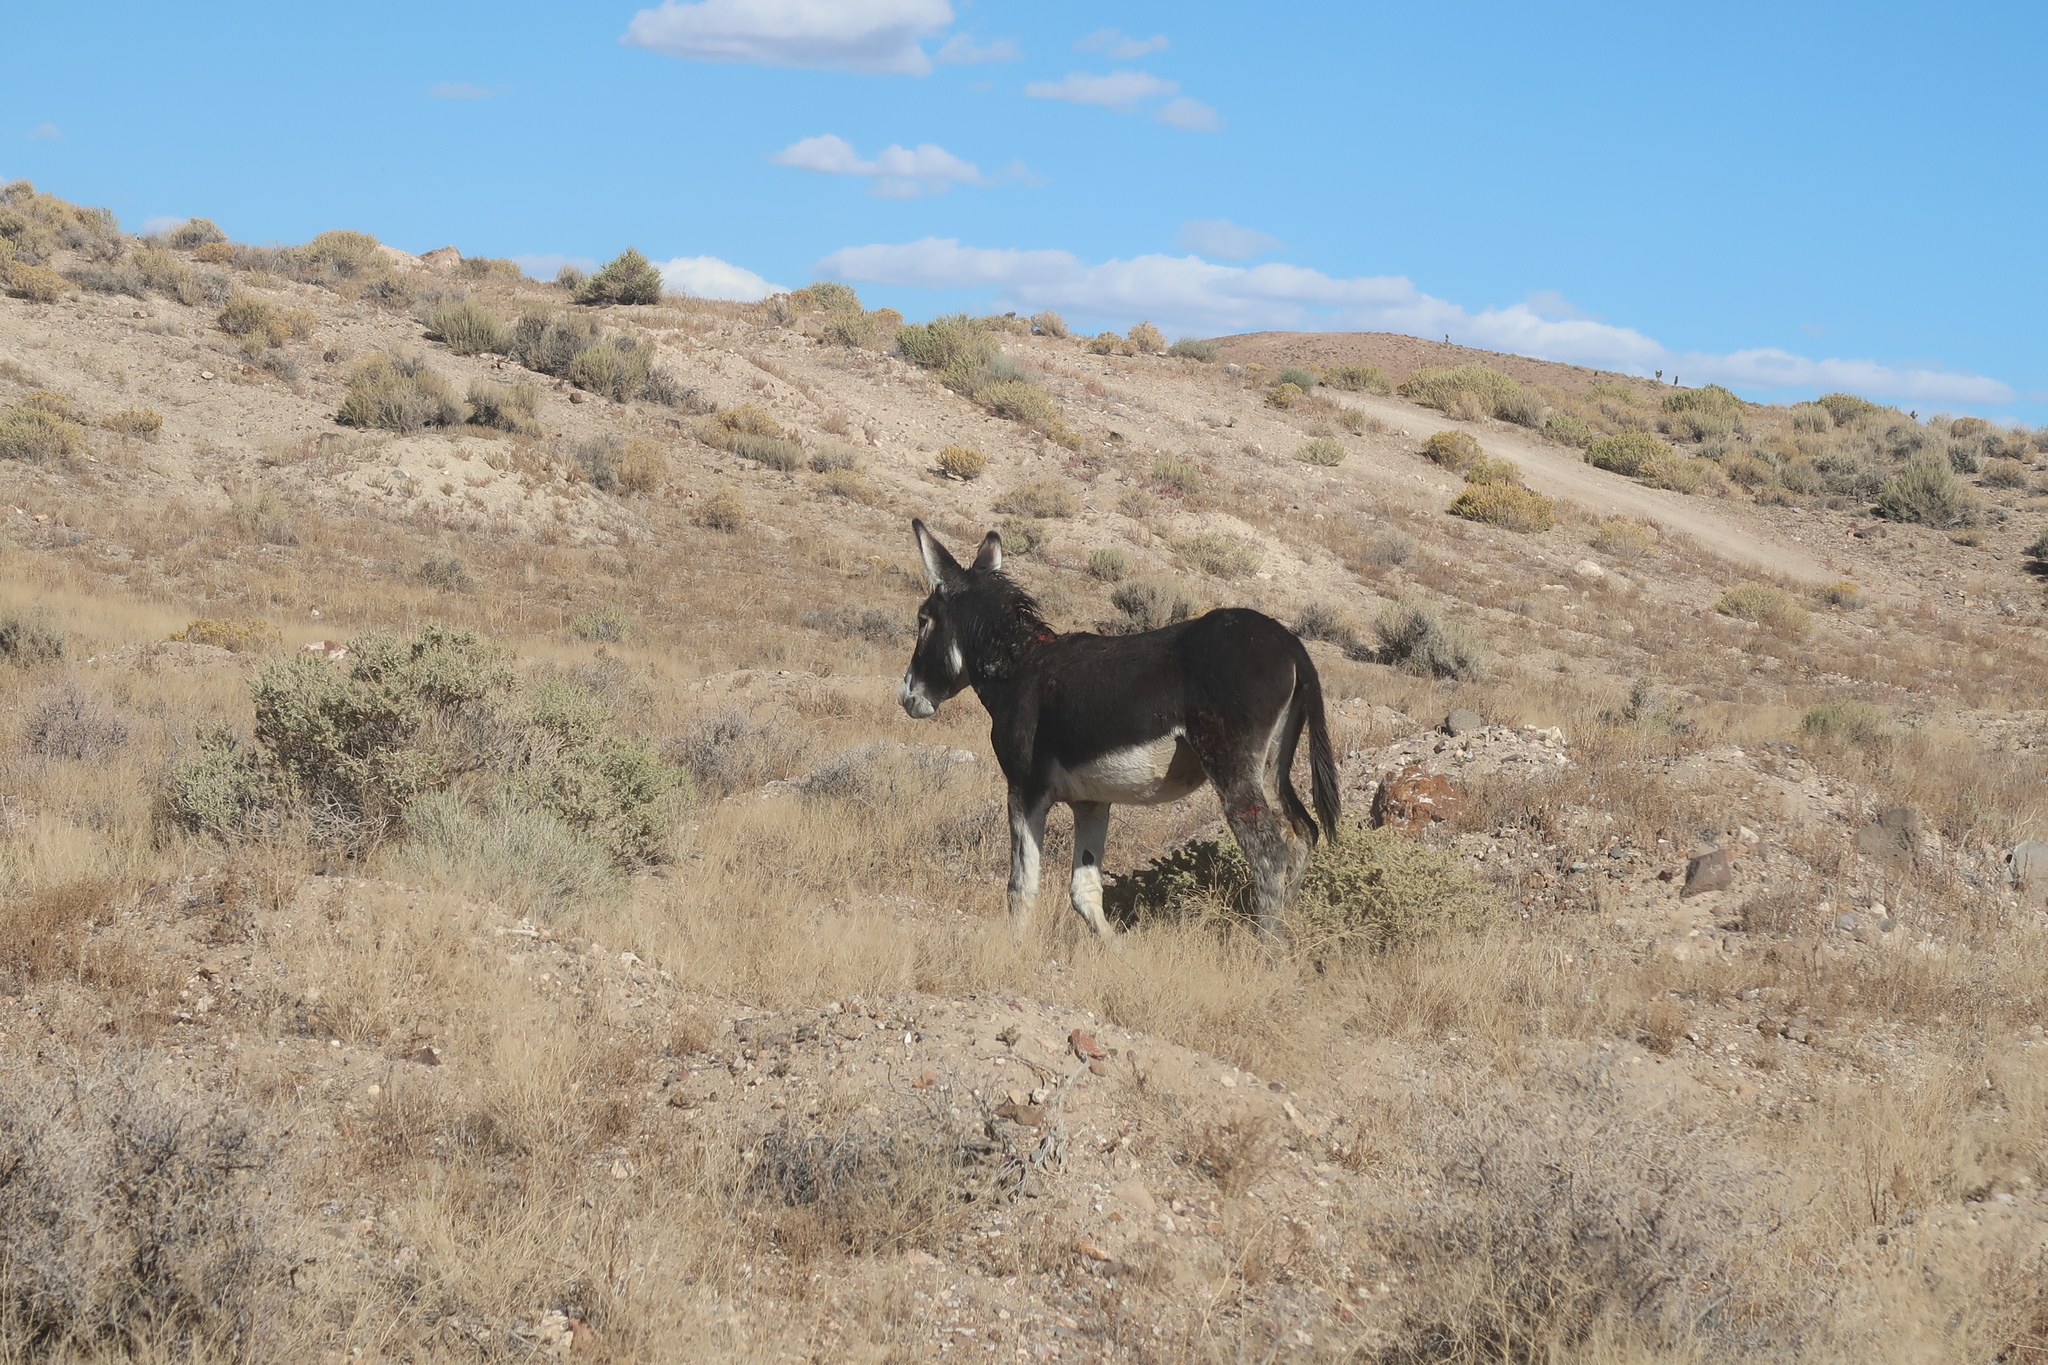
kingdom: Animalia
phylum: Chordata
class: Mammalia
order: Perissodactyla
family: Equidae
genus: Equus
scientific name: Equus asinus
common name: Ass
